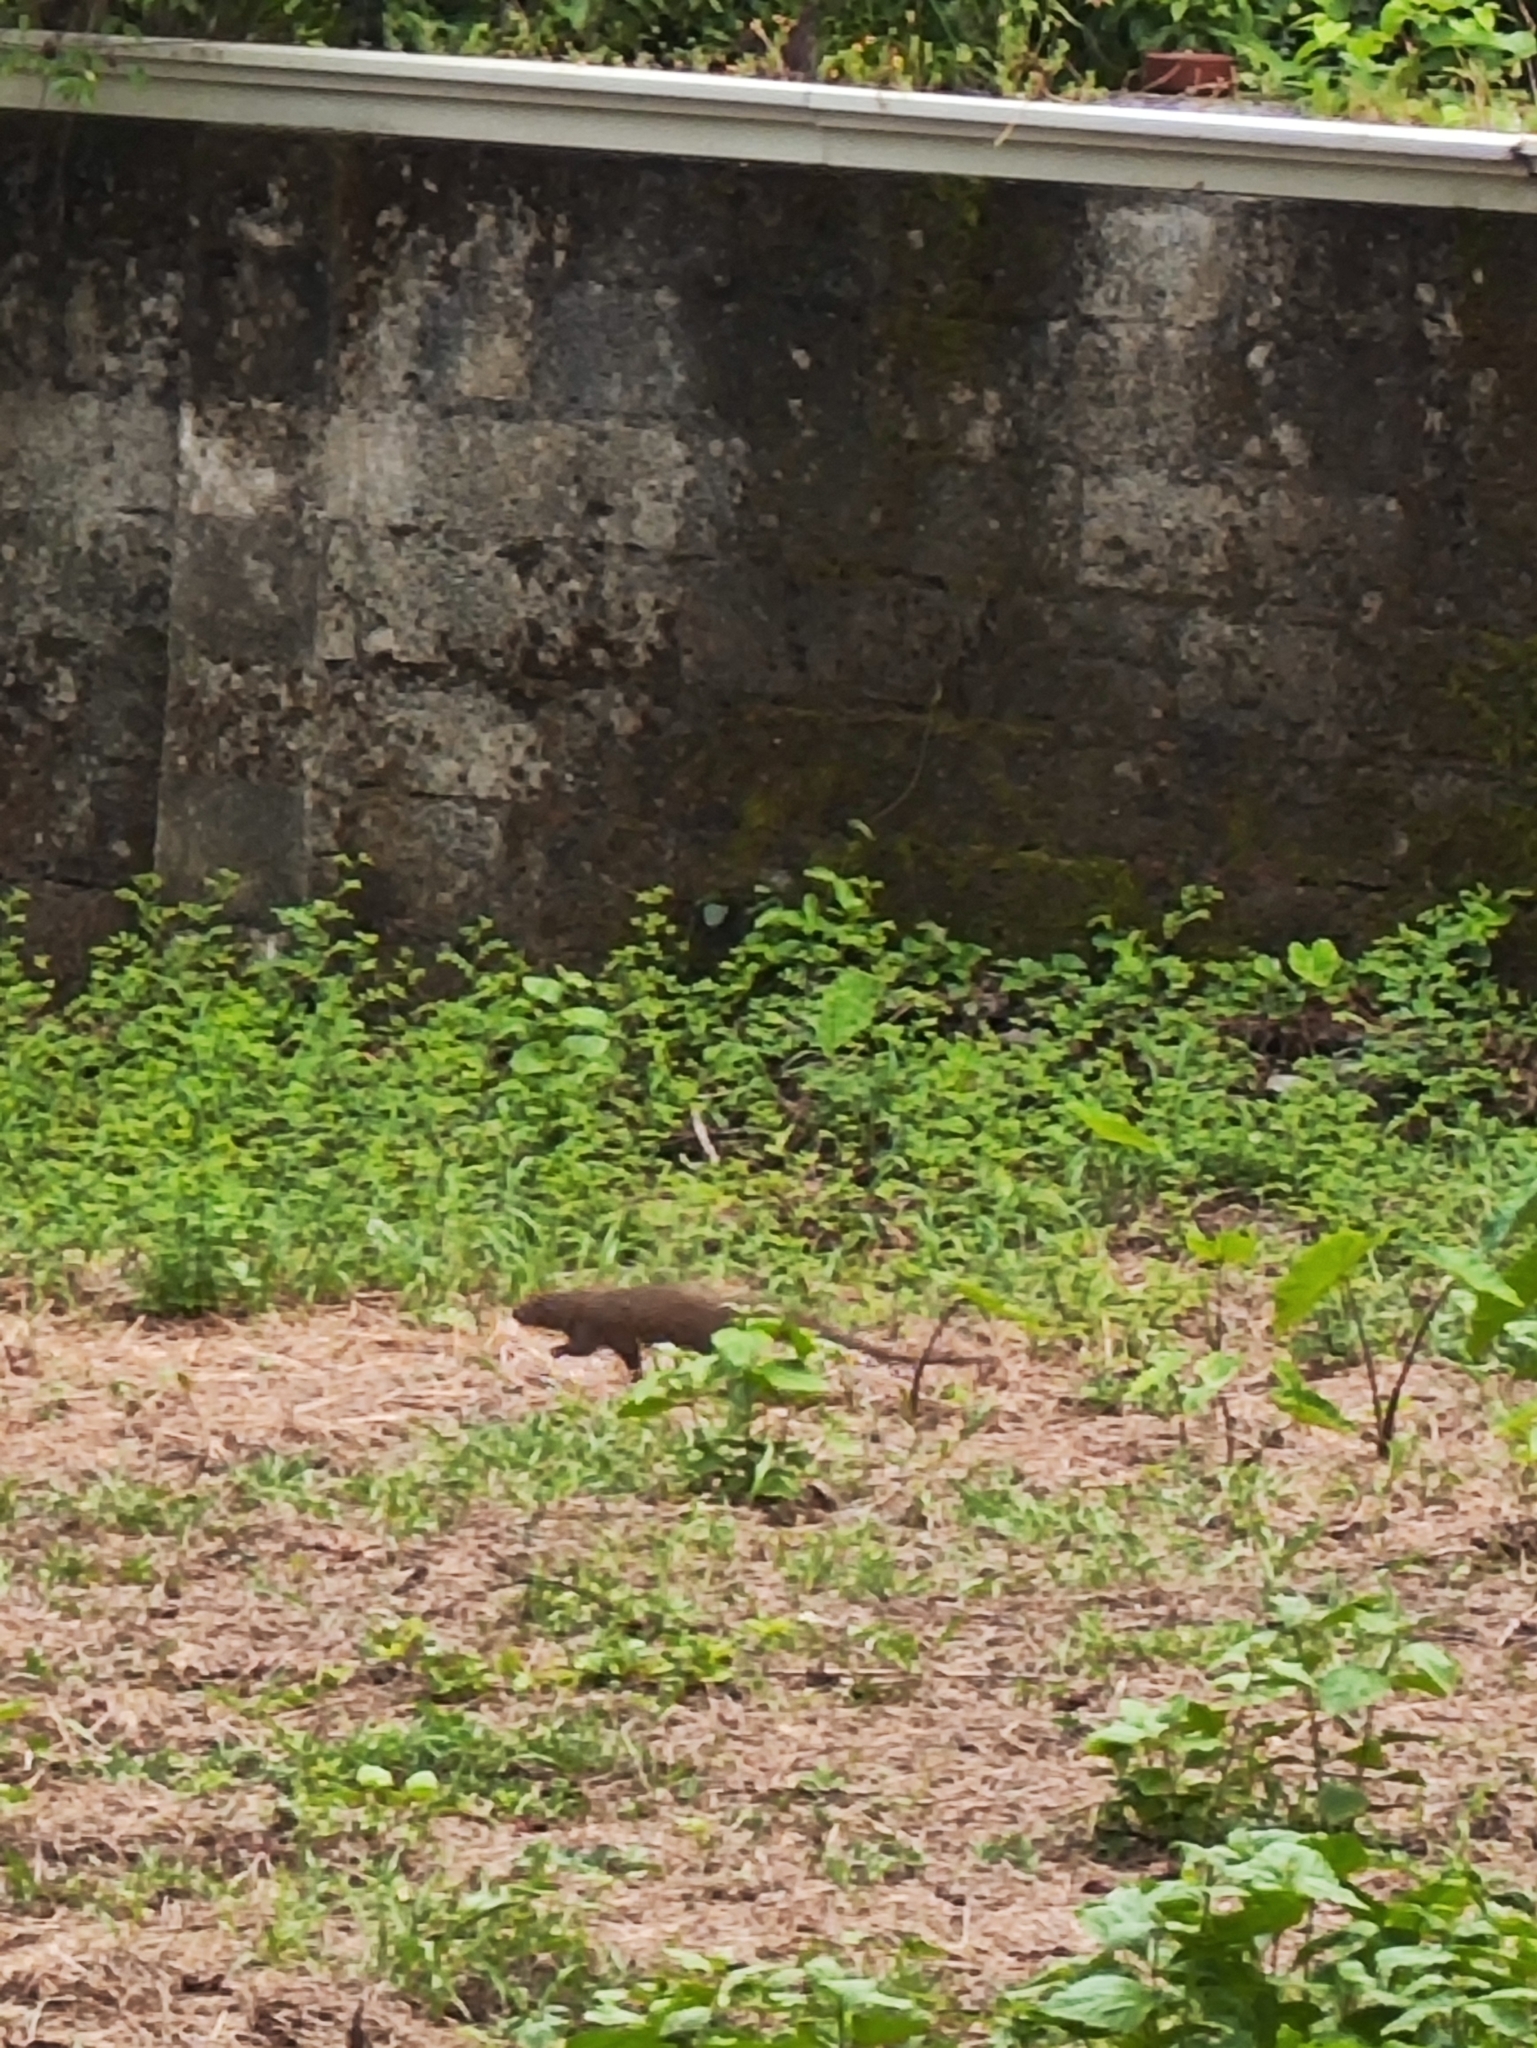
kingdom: Animalia
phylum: Chordata
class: Mammalia
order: Carnivora
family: Herpestidae
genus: Herpestes
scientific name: Herpestes edwardsi
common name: Indian gray mongoose
